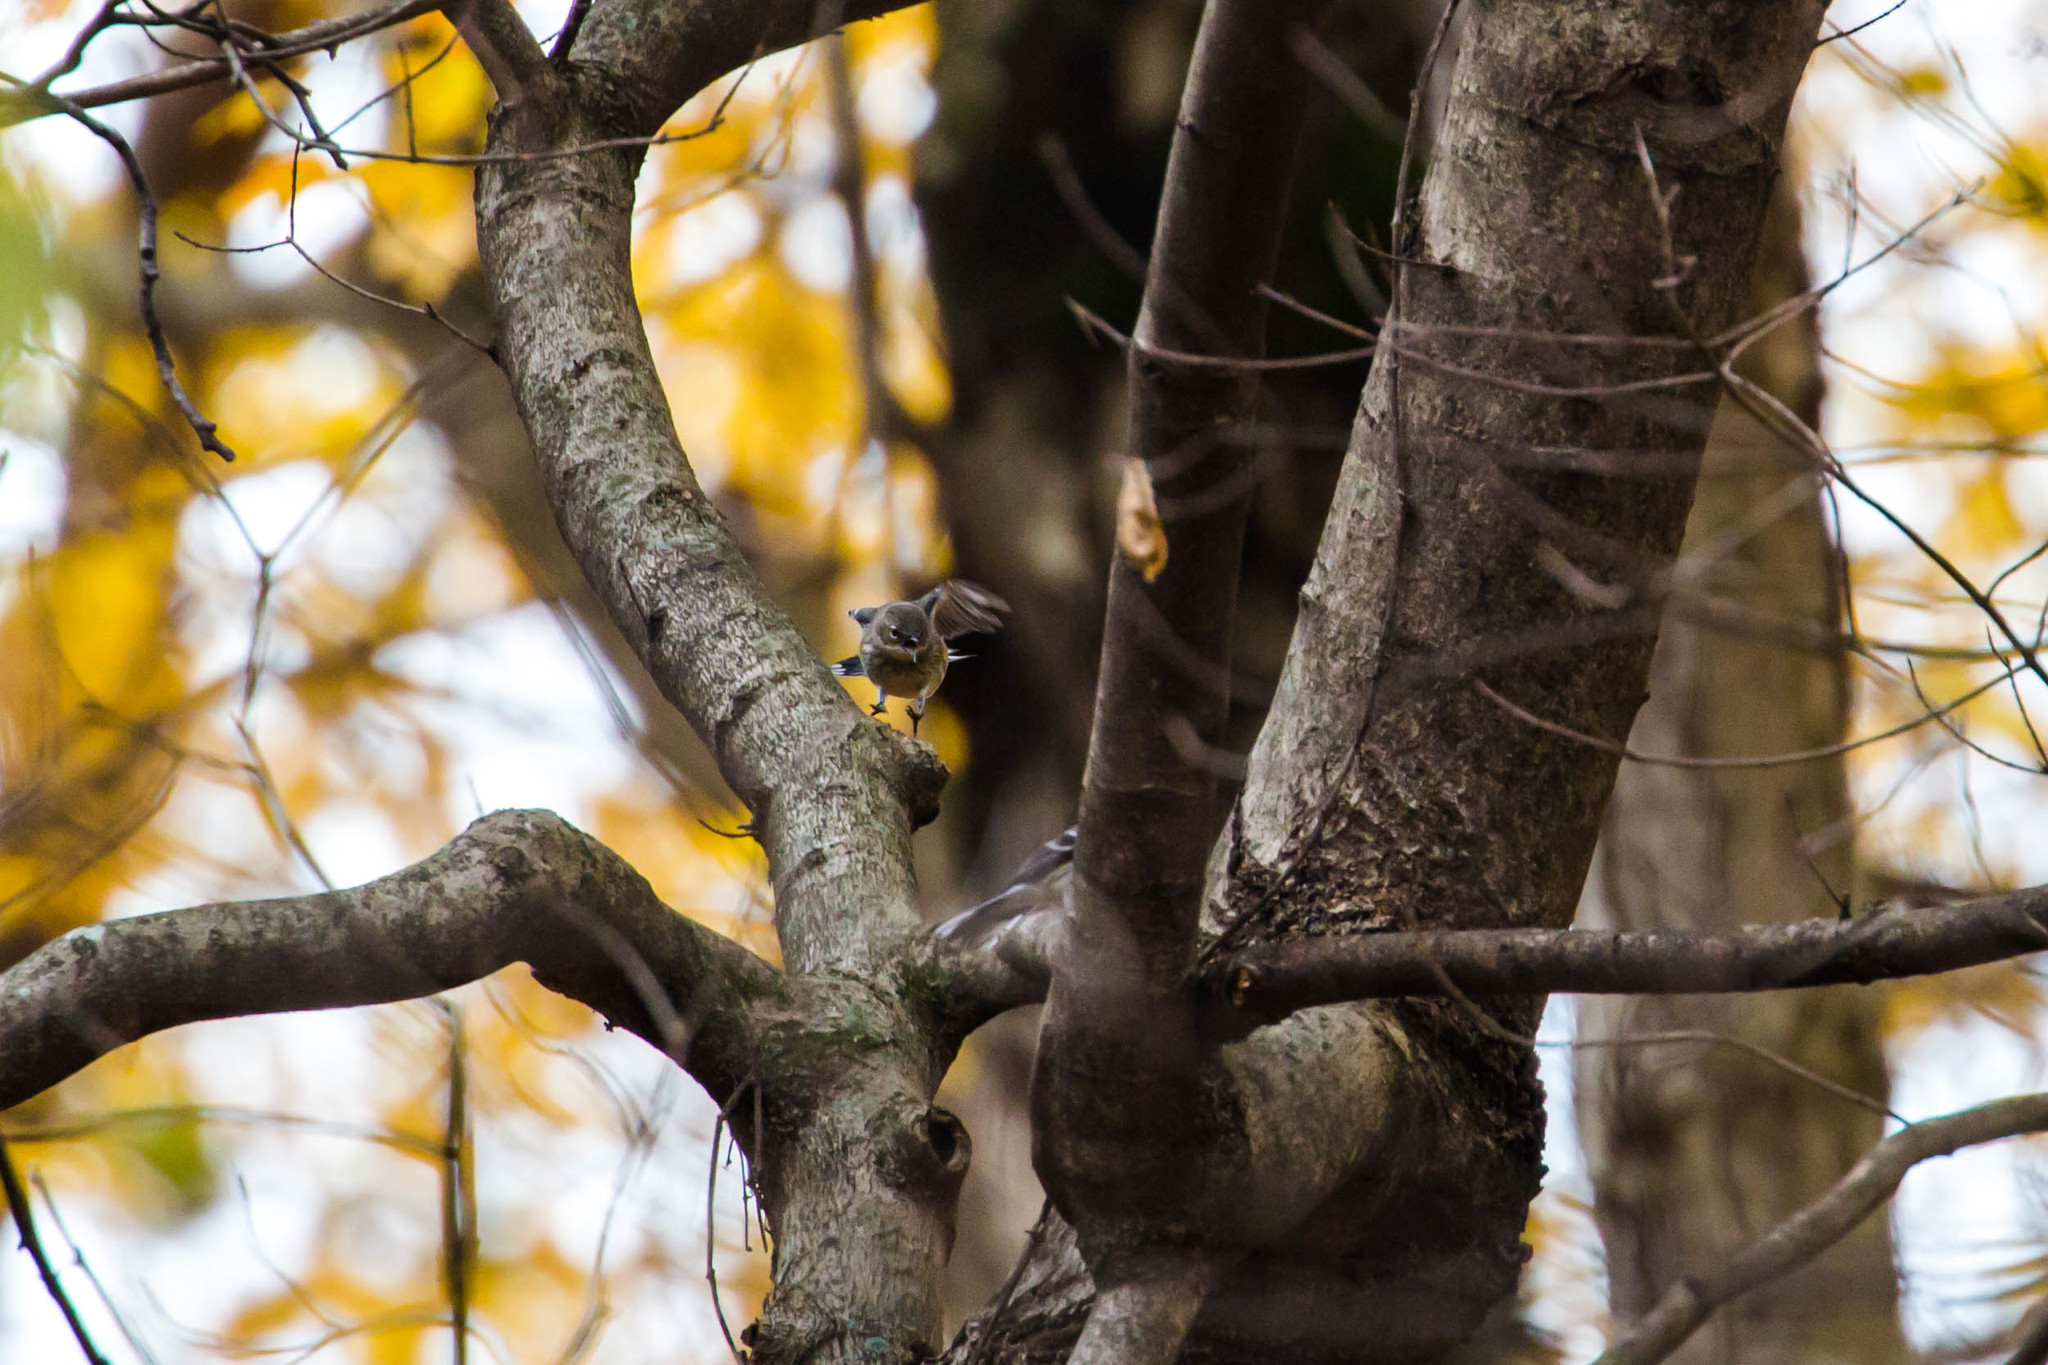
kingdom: Animalia
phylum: Chordata
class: Aves
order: Passeriformes
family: Parulidae
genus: Setophaga
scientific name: Setophaga coronata
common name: Myrtle warbler
